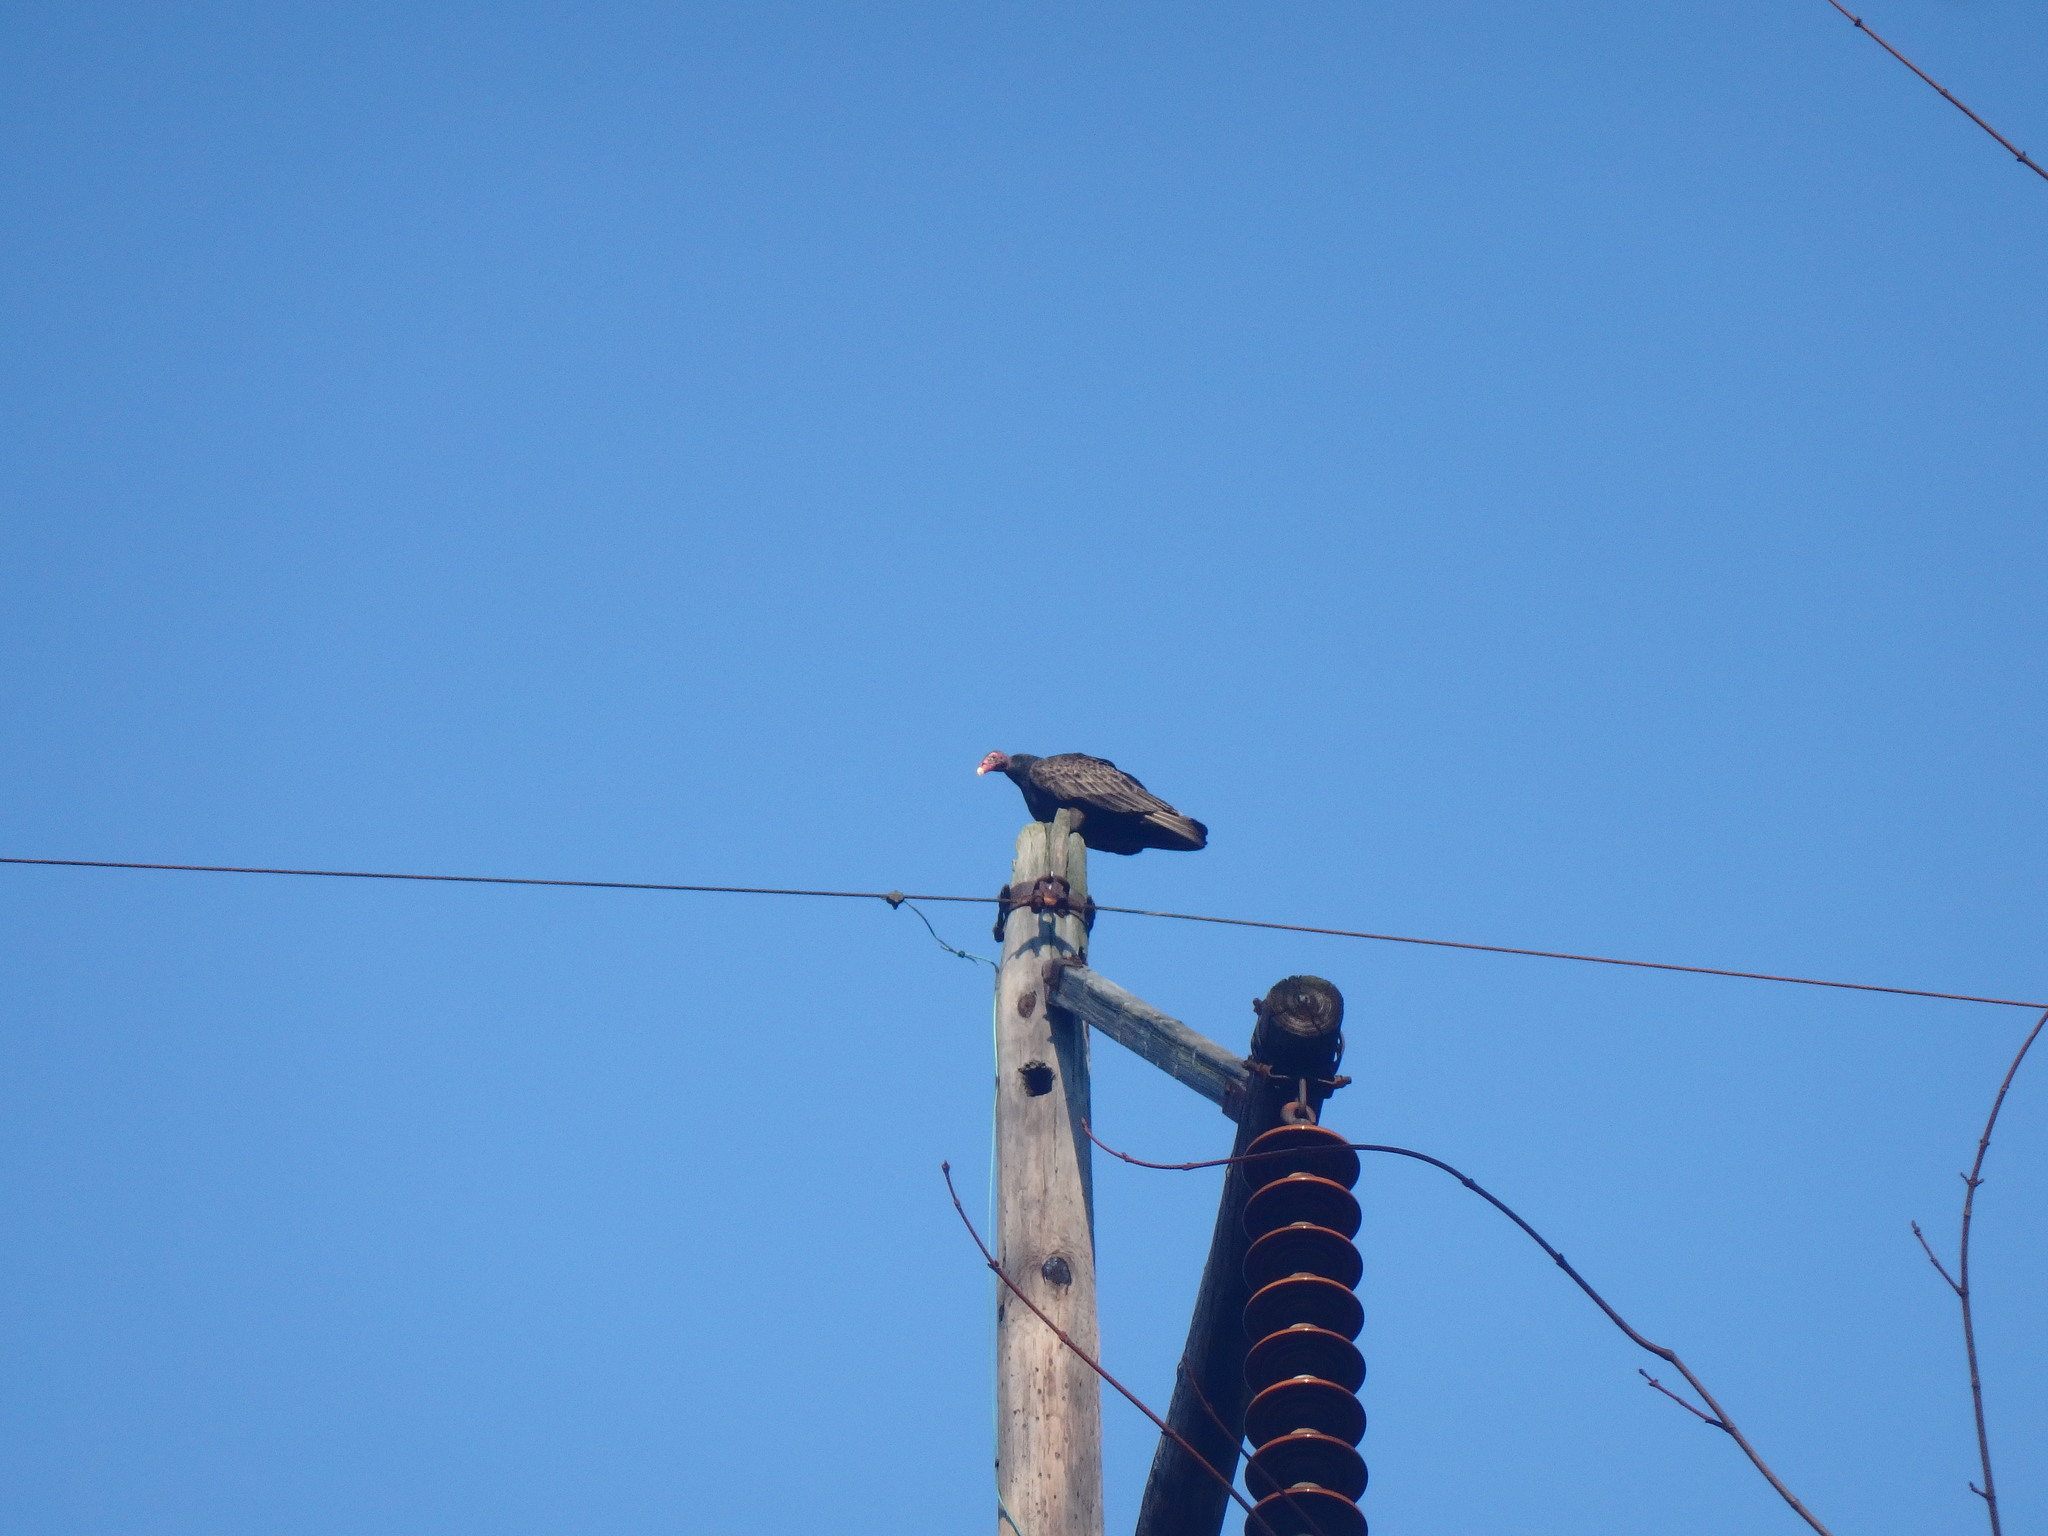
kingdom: Animalia
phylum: Chordata
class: Aves
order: Accipitriformes
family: Cathartidae
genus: Cathartes
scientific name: Cathartes aura
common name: Turkey vulture
